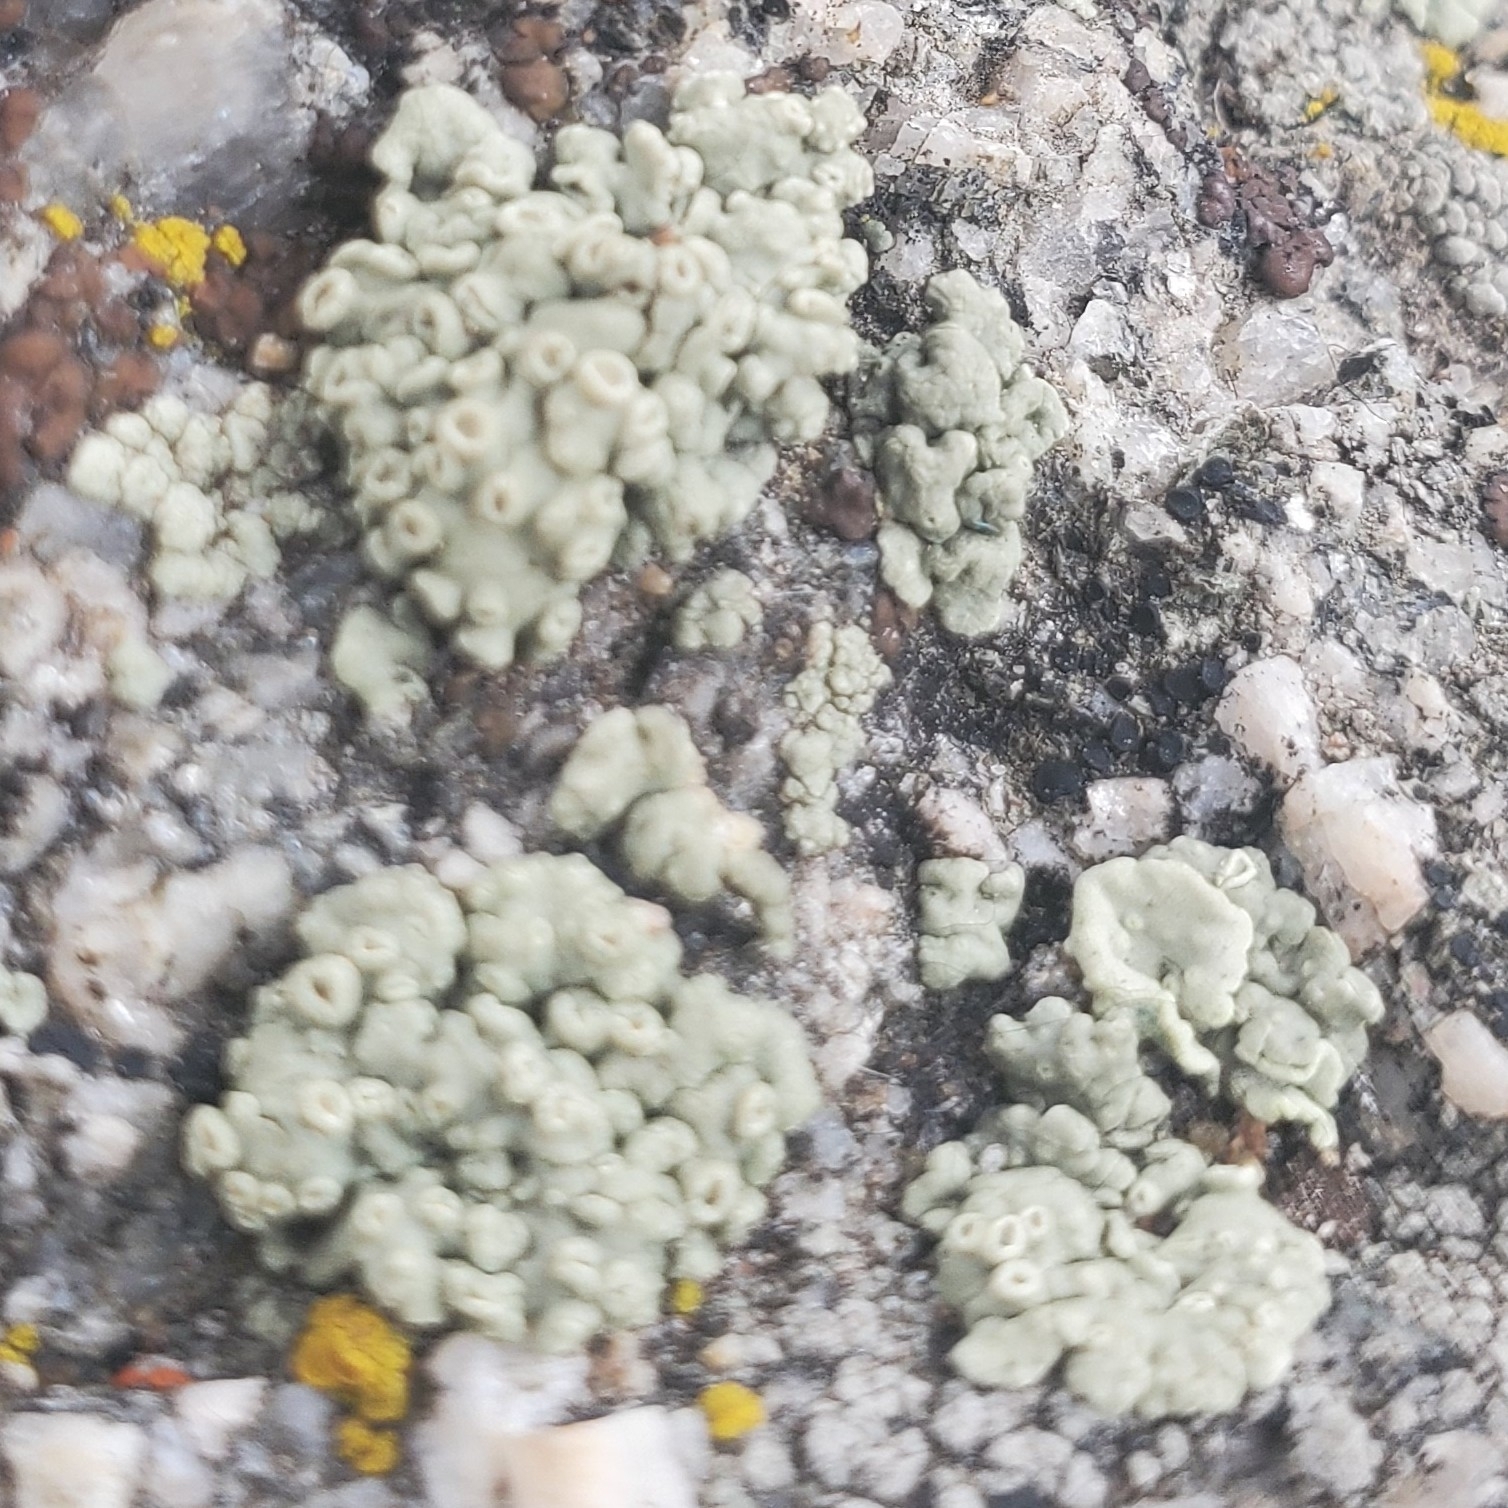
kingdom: Fungi
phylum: Ascomycota
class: Lecanoromycetes
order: Lecanorales
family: Lecanoraceae
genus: Rhizoplaca
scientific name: Rhizoplaca melanophthalma
